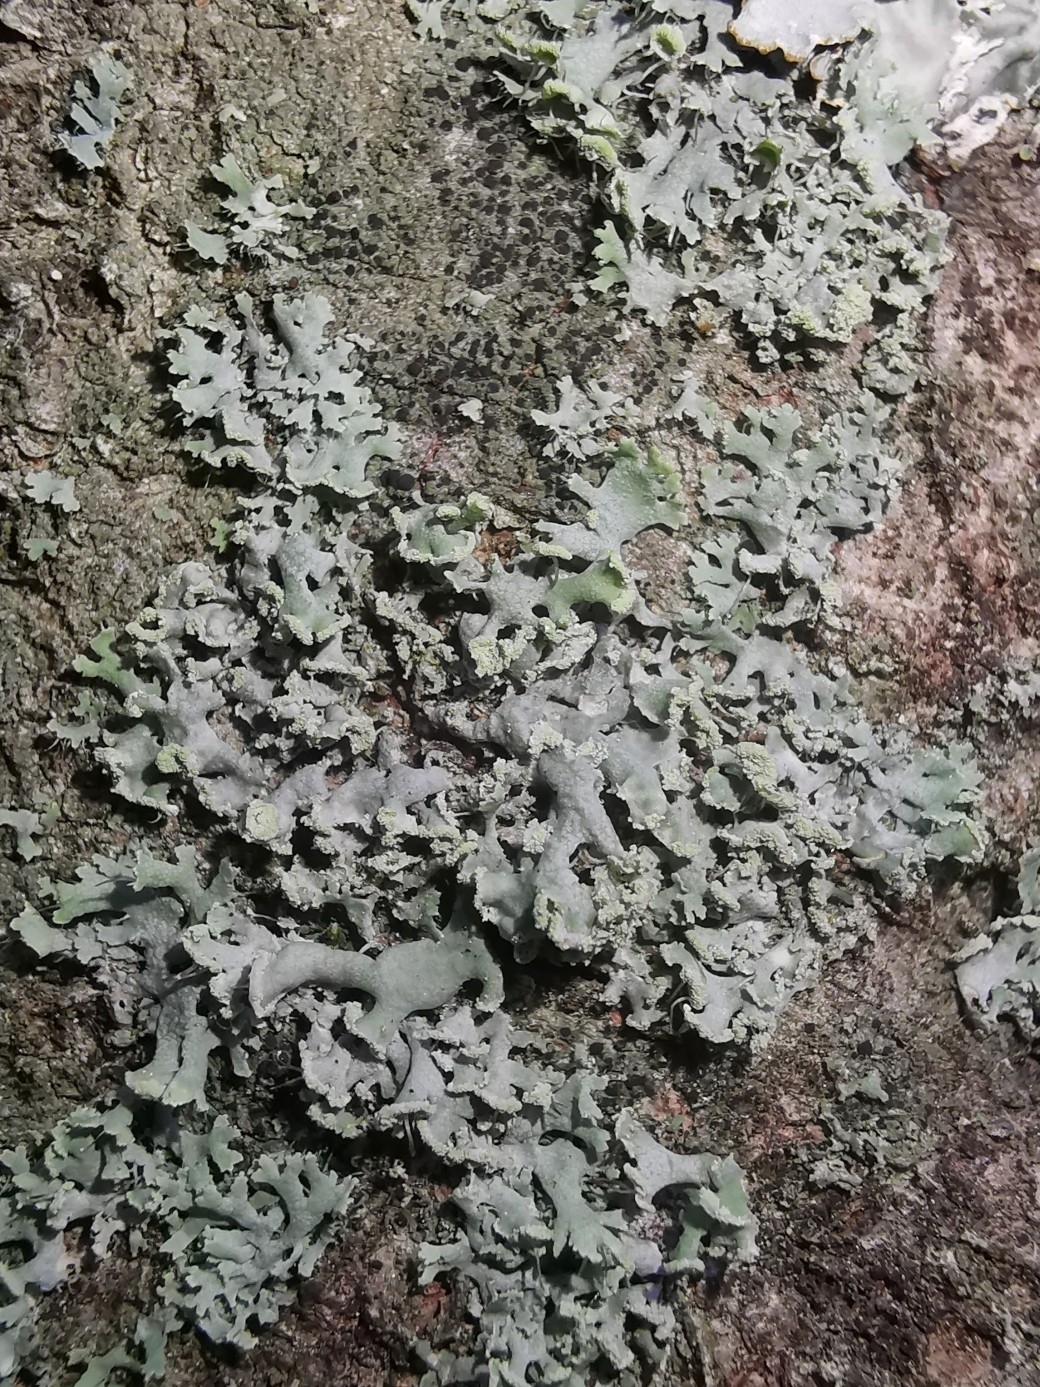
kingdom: Fungi
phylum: Ascomycota
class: Lecanoromycetes
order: Caliciales
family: Physciaceae
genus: Physcia
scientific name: Physcia tenella
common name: Fringed rosette lichen
